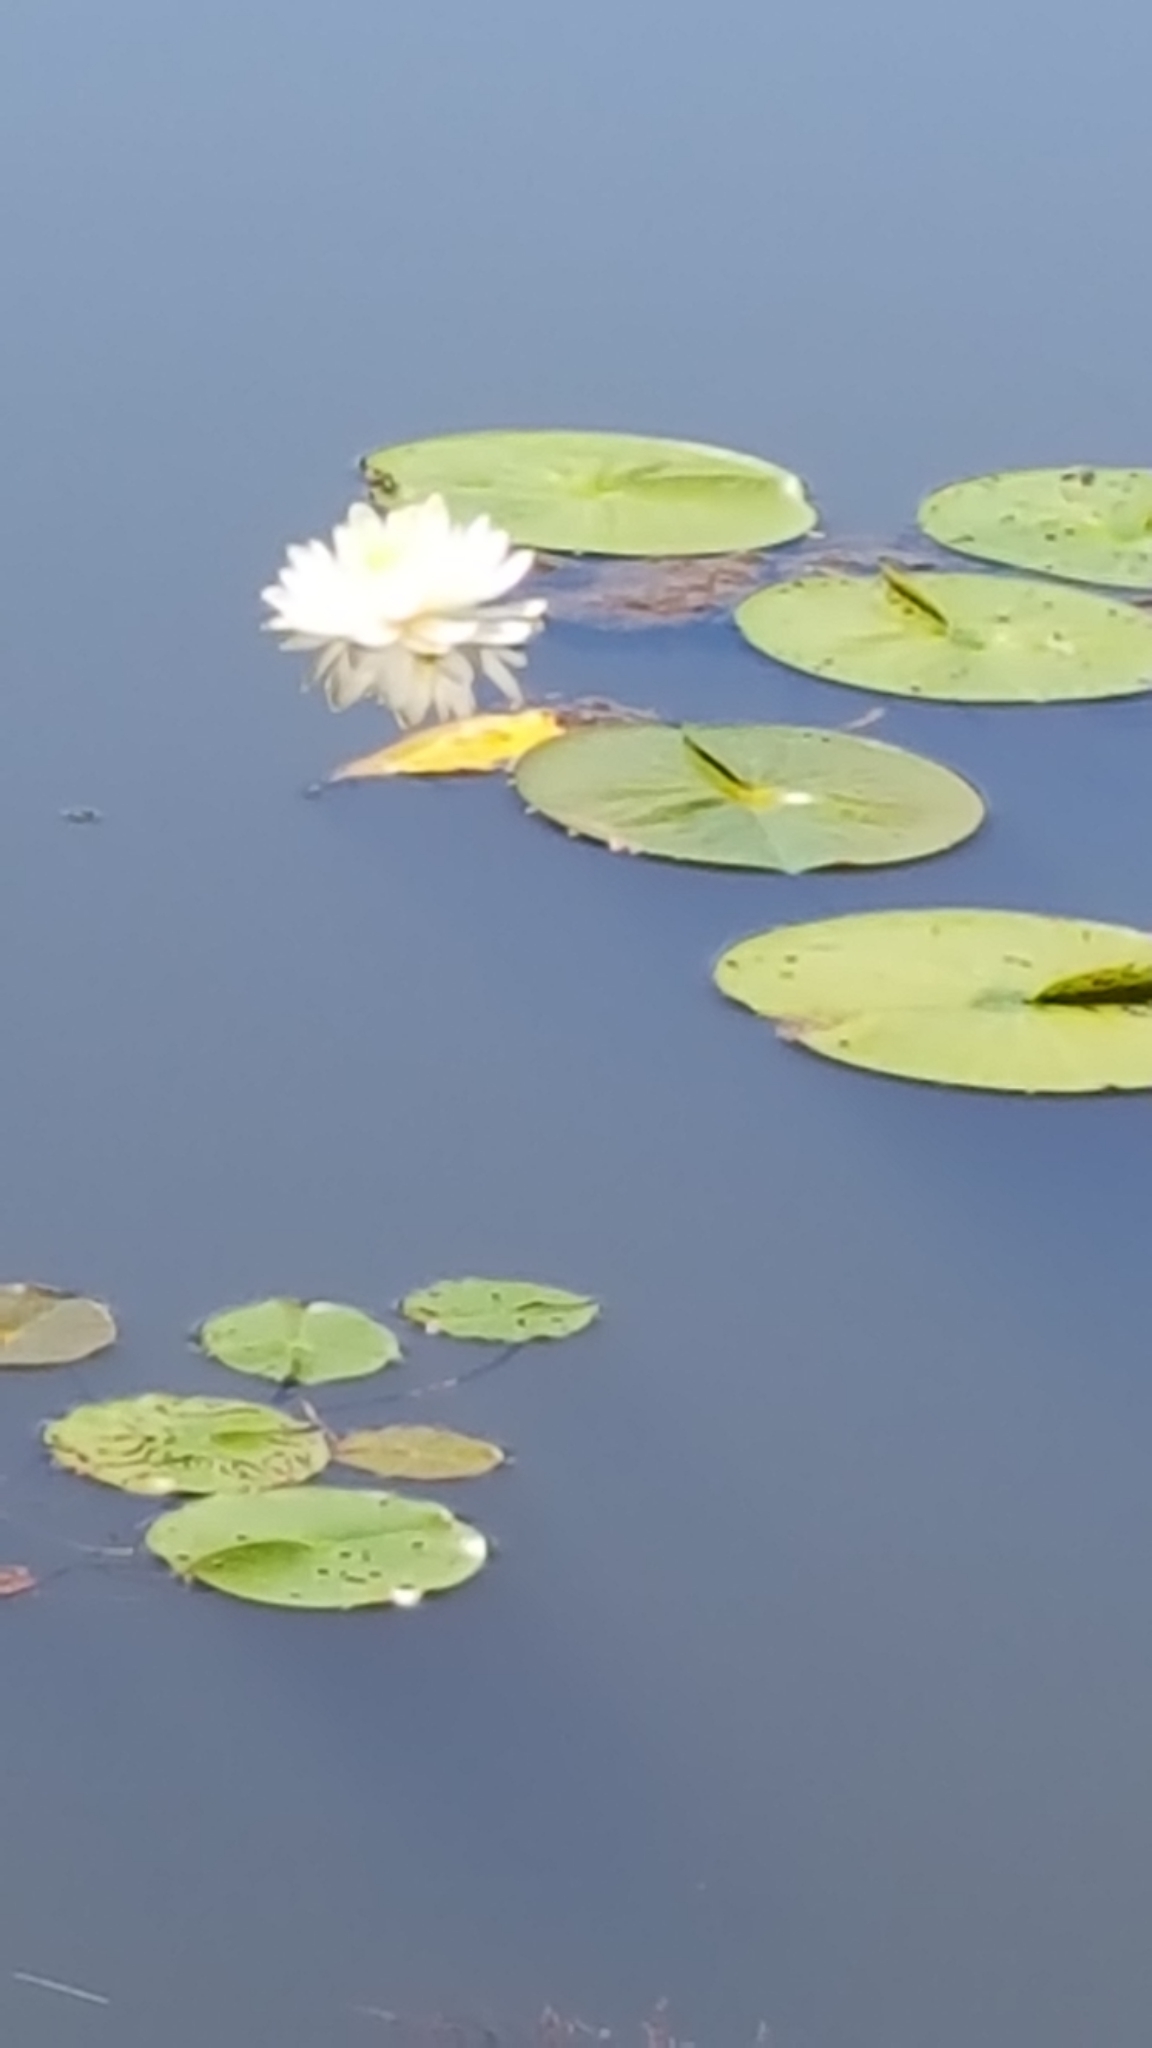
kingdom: Plantae
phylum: Tracheophyta
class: Magnoliopsida
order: Nymphaeales
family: Nymphaeaceae
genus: Nymphaea
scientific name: Nymphaea odorata
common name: Fragrant water-lily
